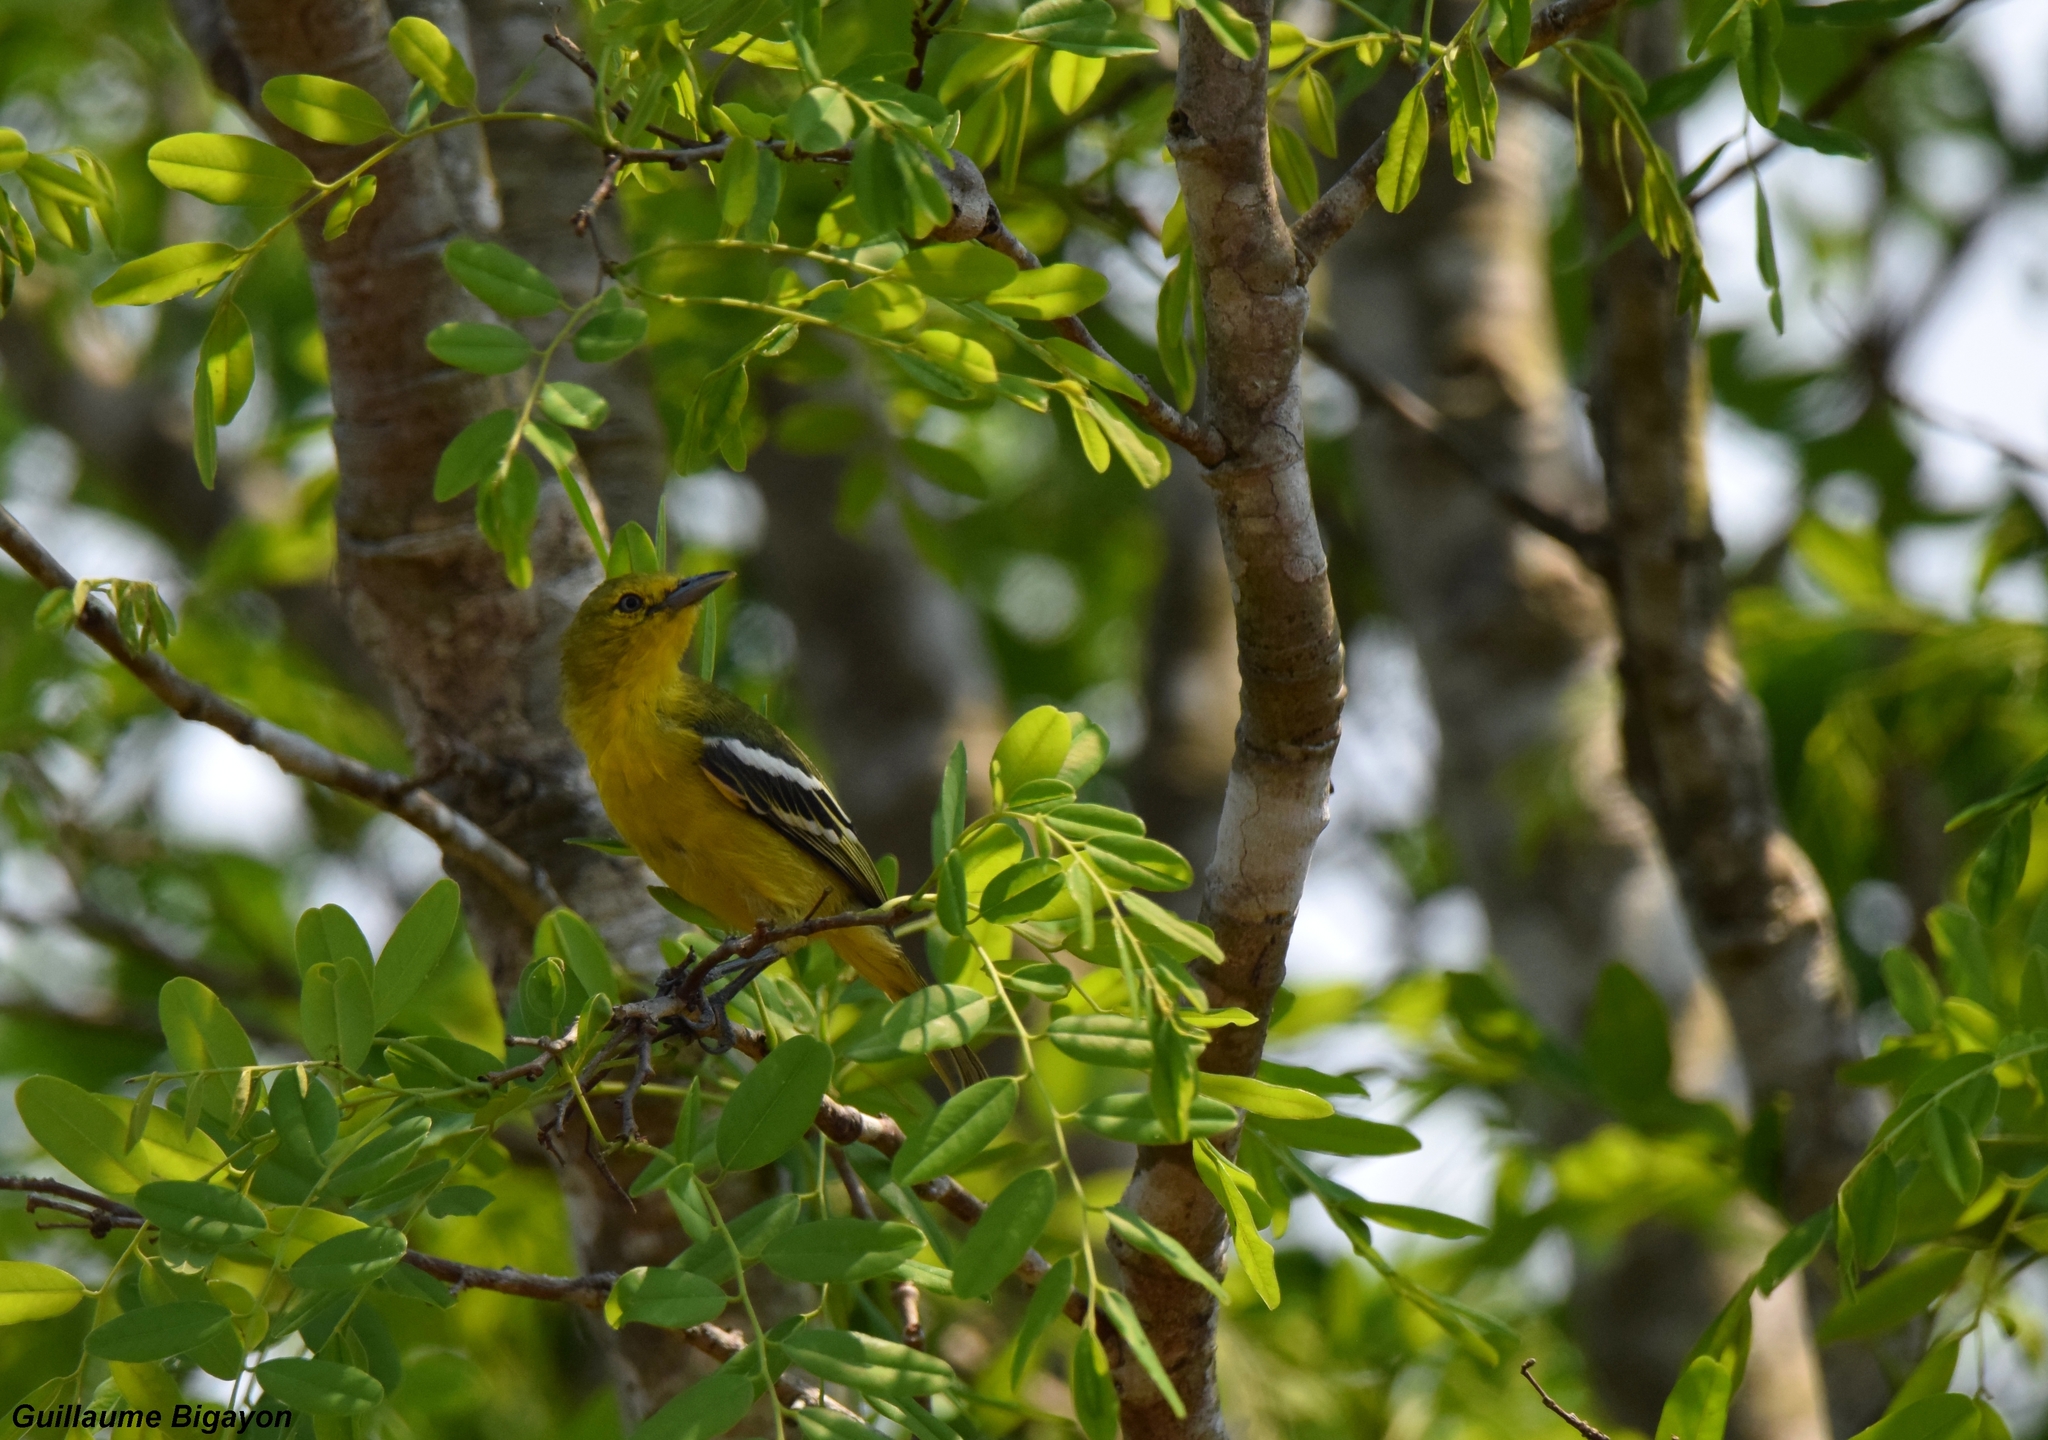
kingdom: Animalia
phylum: Chordata
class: Aves
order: Passeriformes
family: Aegithinidae
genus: Aegithina
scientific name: Aegithina tiphia
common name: Common iora
